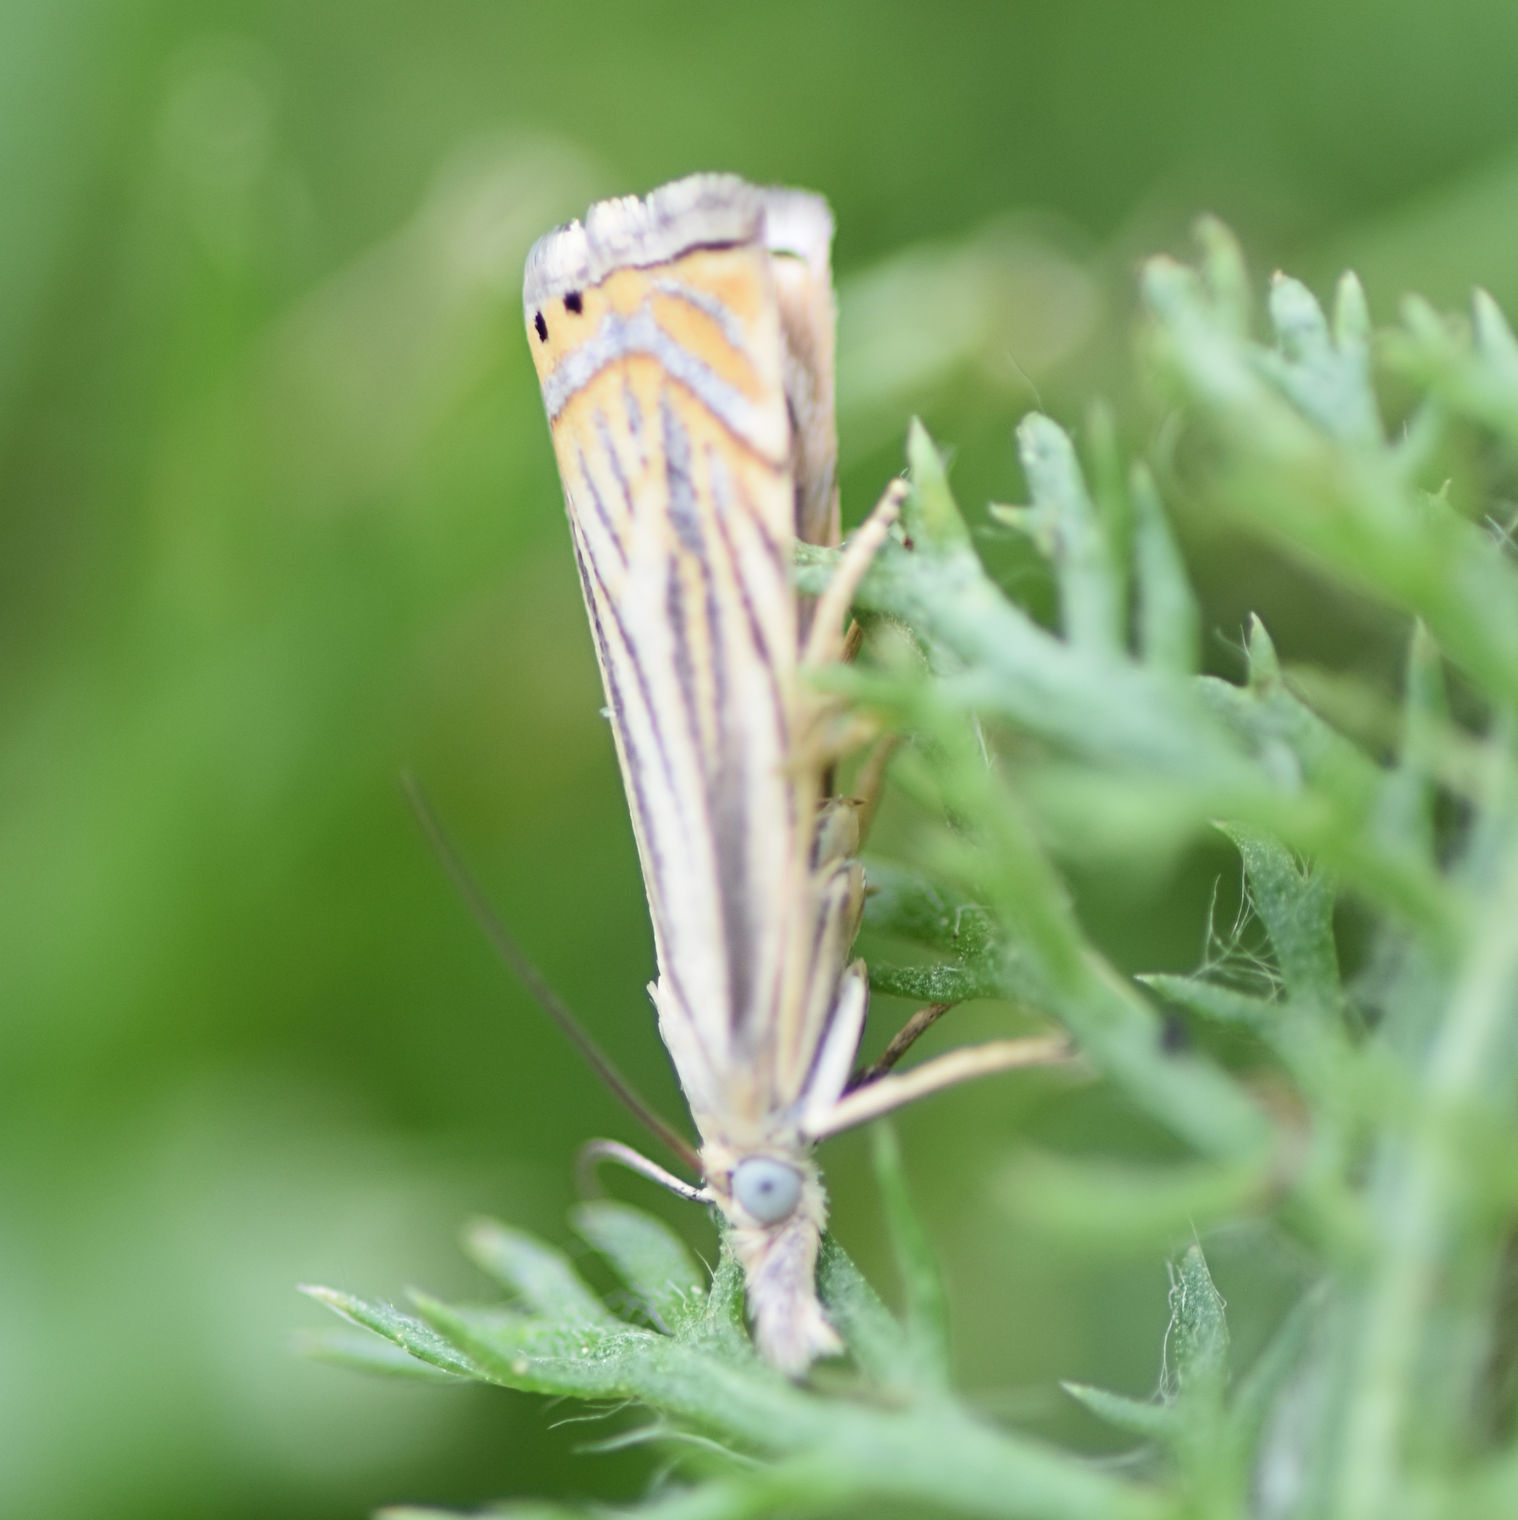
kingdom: Animalia
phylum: Arthropoda
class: Insecta
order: Lepidoptera
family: Crambidae
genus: Chrysoteuchia
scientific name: Chrysoteuchia topiarius
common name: Topiary grass-veneer
